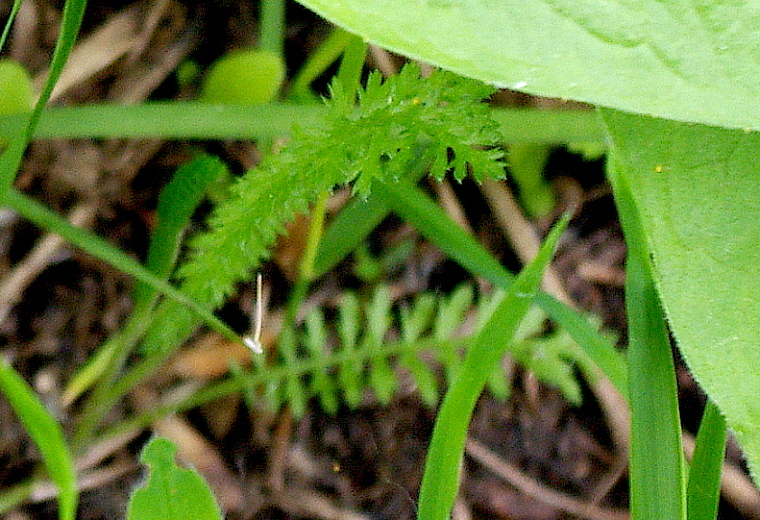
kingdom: Plantae
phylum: Tracheophyta
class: Magnoliopsida
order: Asterales
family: Asteraceae
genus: Achillea
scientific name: Achillea millefolium
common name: Yarrow
